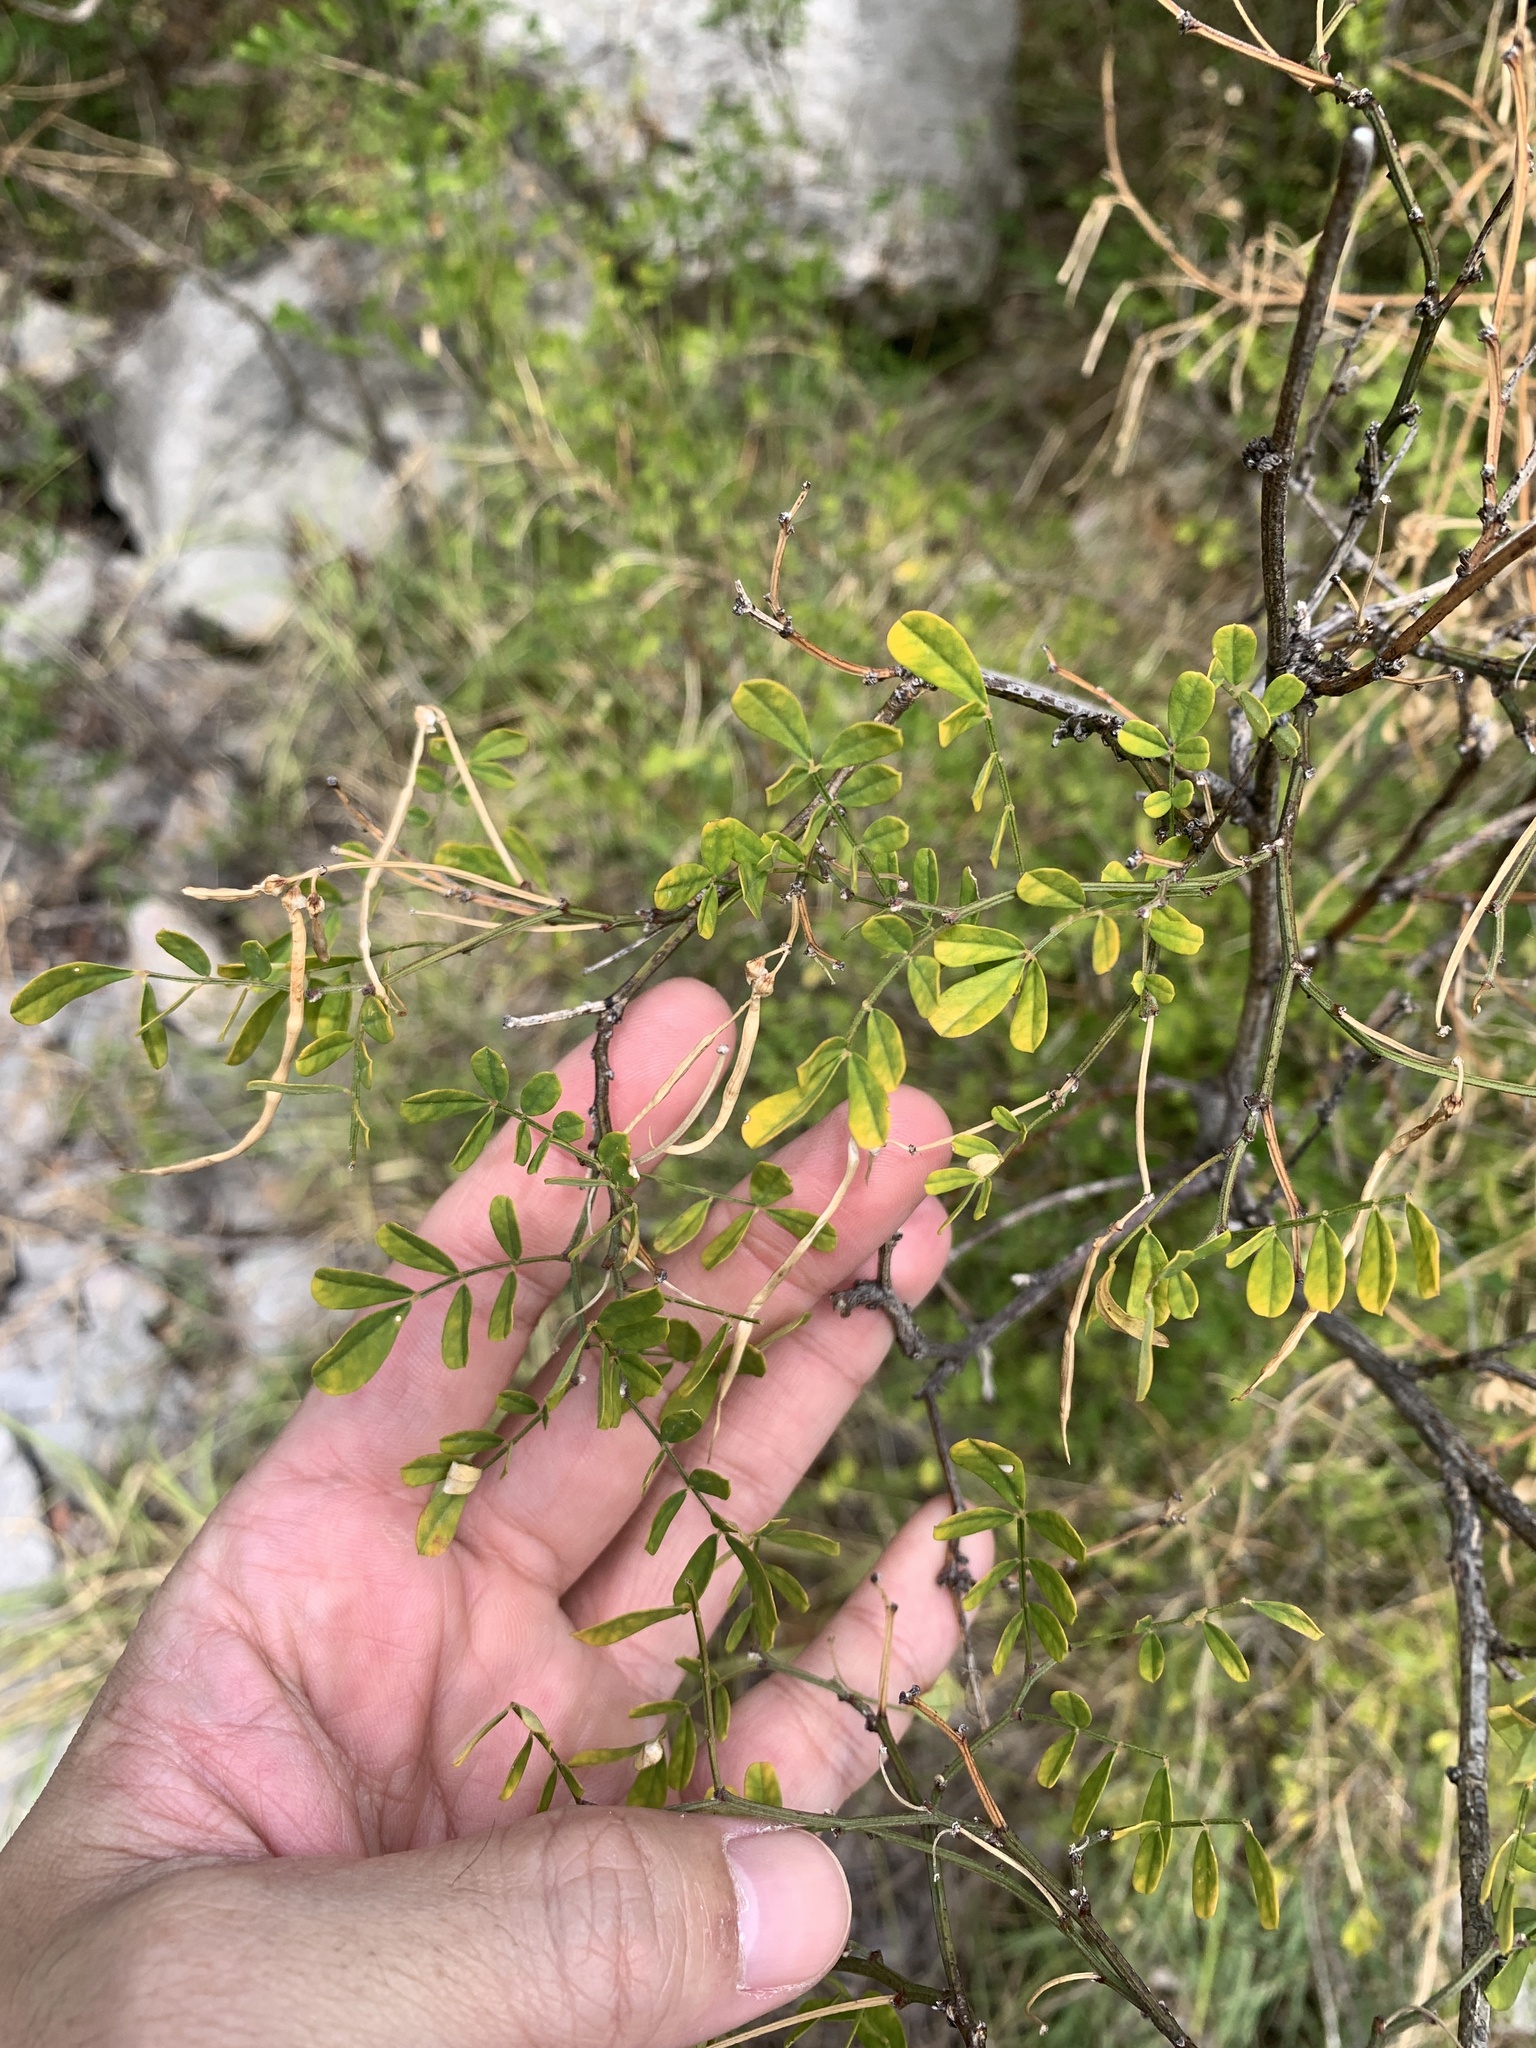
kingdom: Plantae
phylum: Tracheophyta
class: Magnoliopsida
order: Fabales
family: Fabaceae
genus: Hippocrepis
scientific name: Hippocrepis emerus
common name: Scorpion senna
